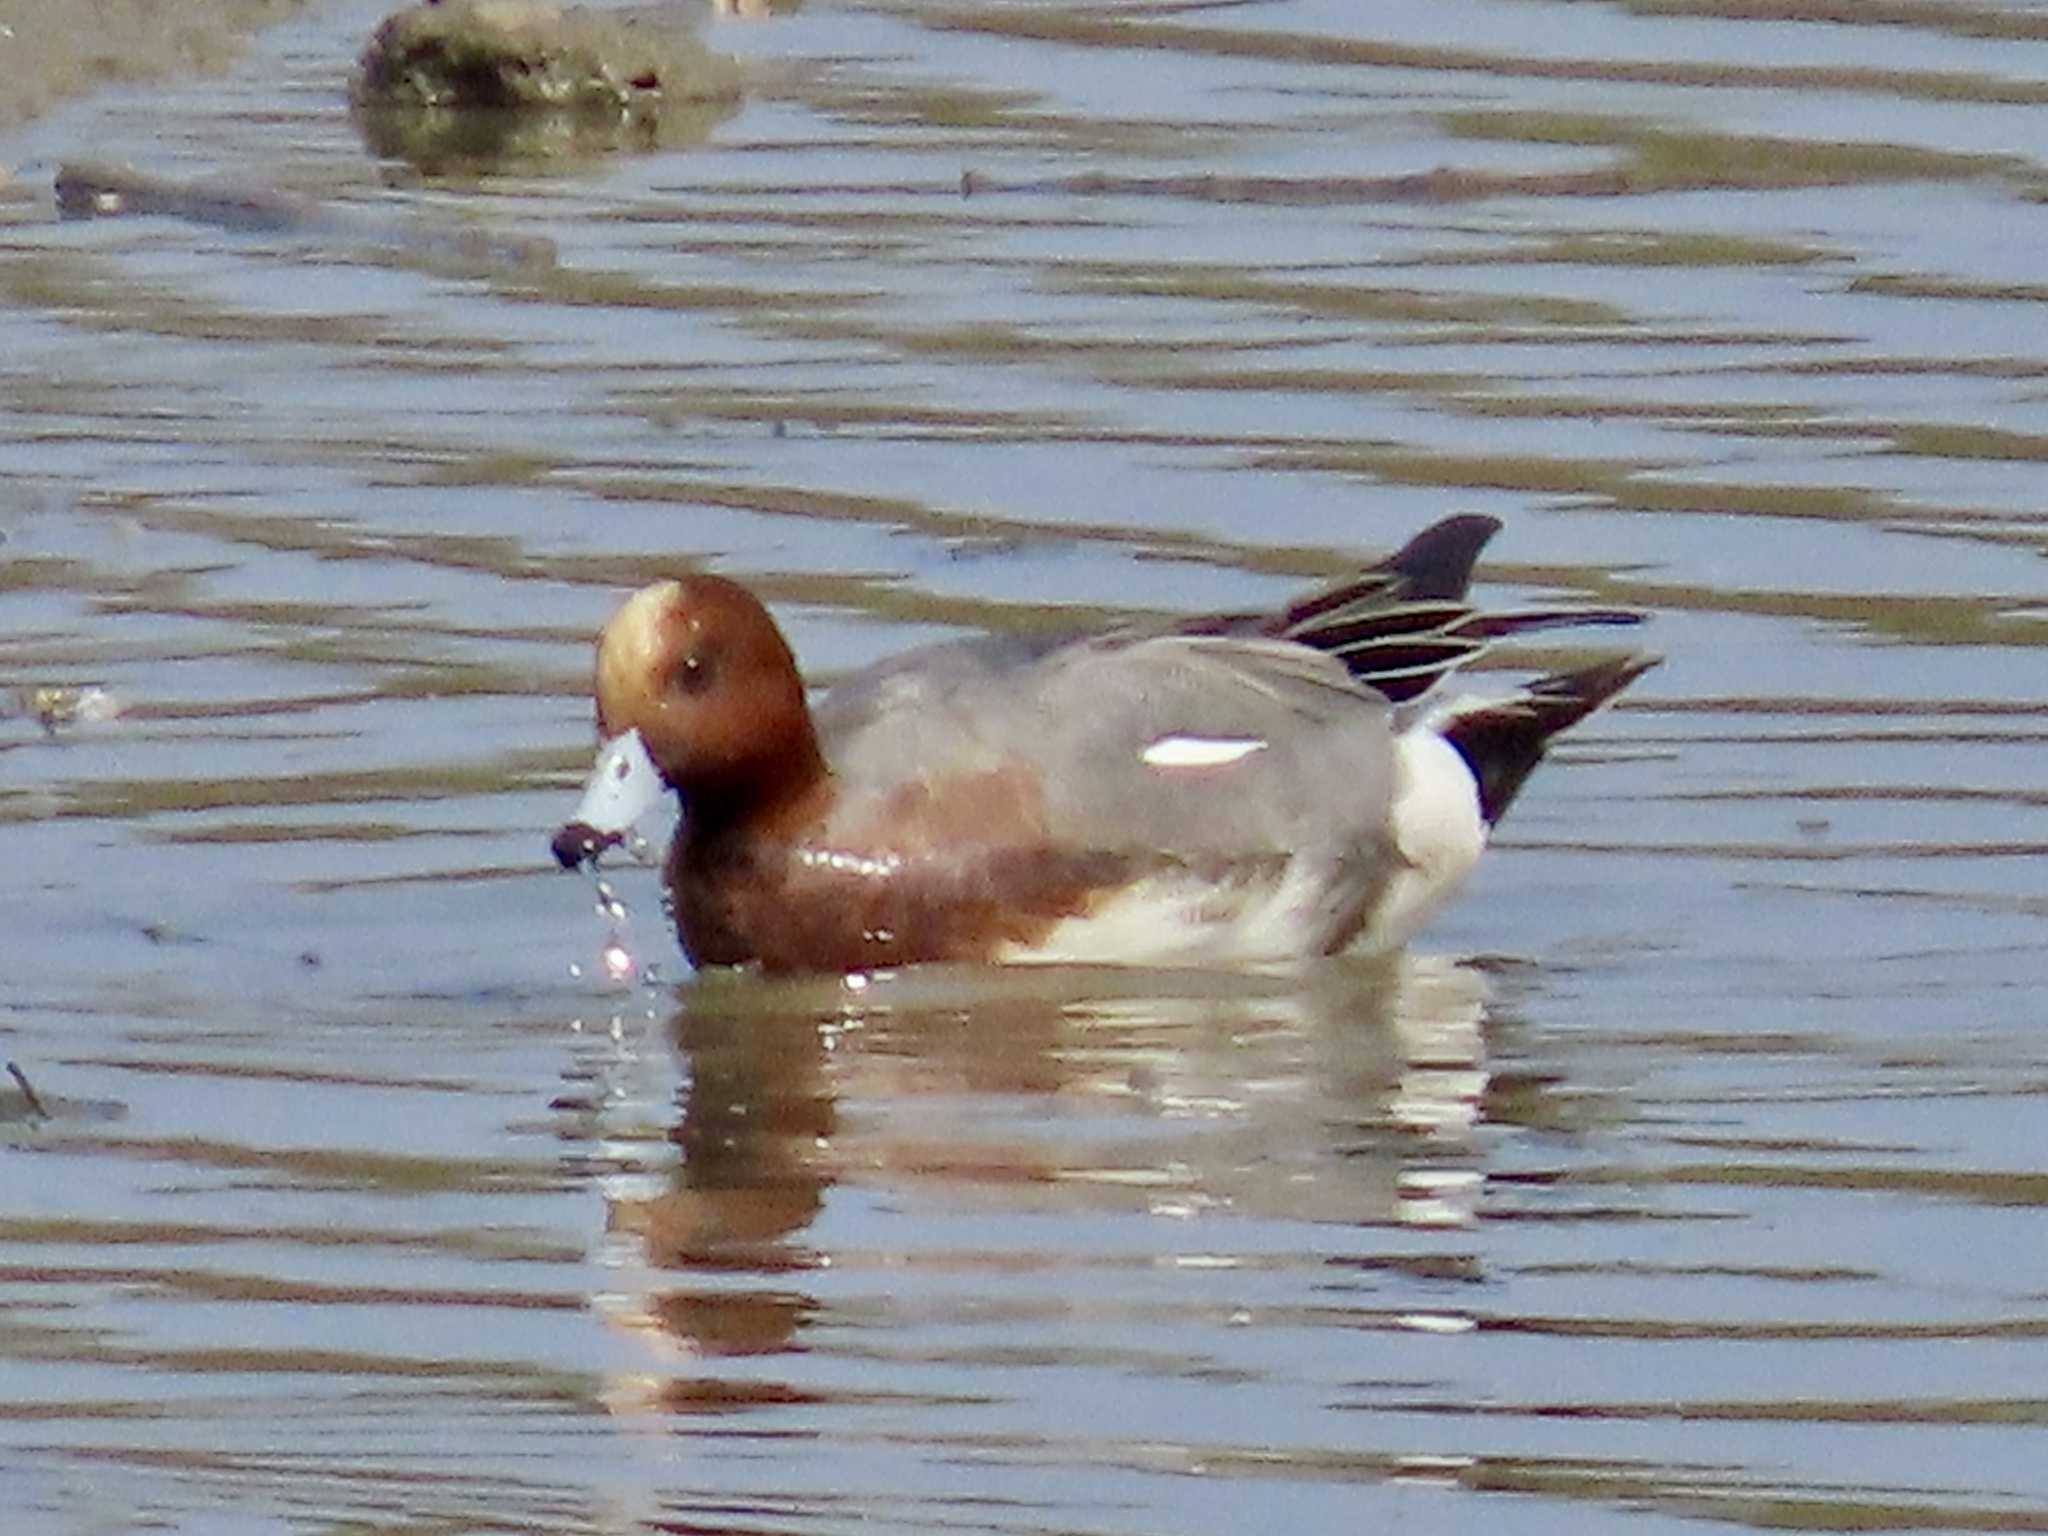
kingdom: Animalia
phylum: Chordata
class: Aves
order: Anseriformes
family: Anatidae
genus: Mareca
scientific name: Mareca penelope
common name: Eurasian wigeon
